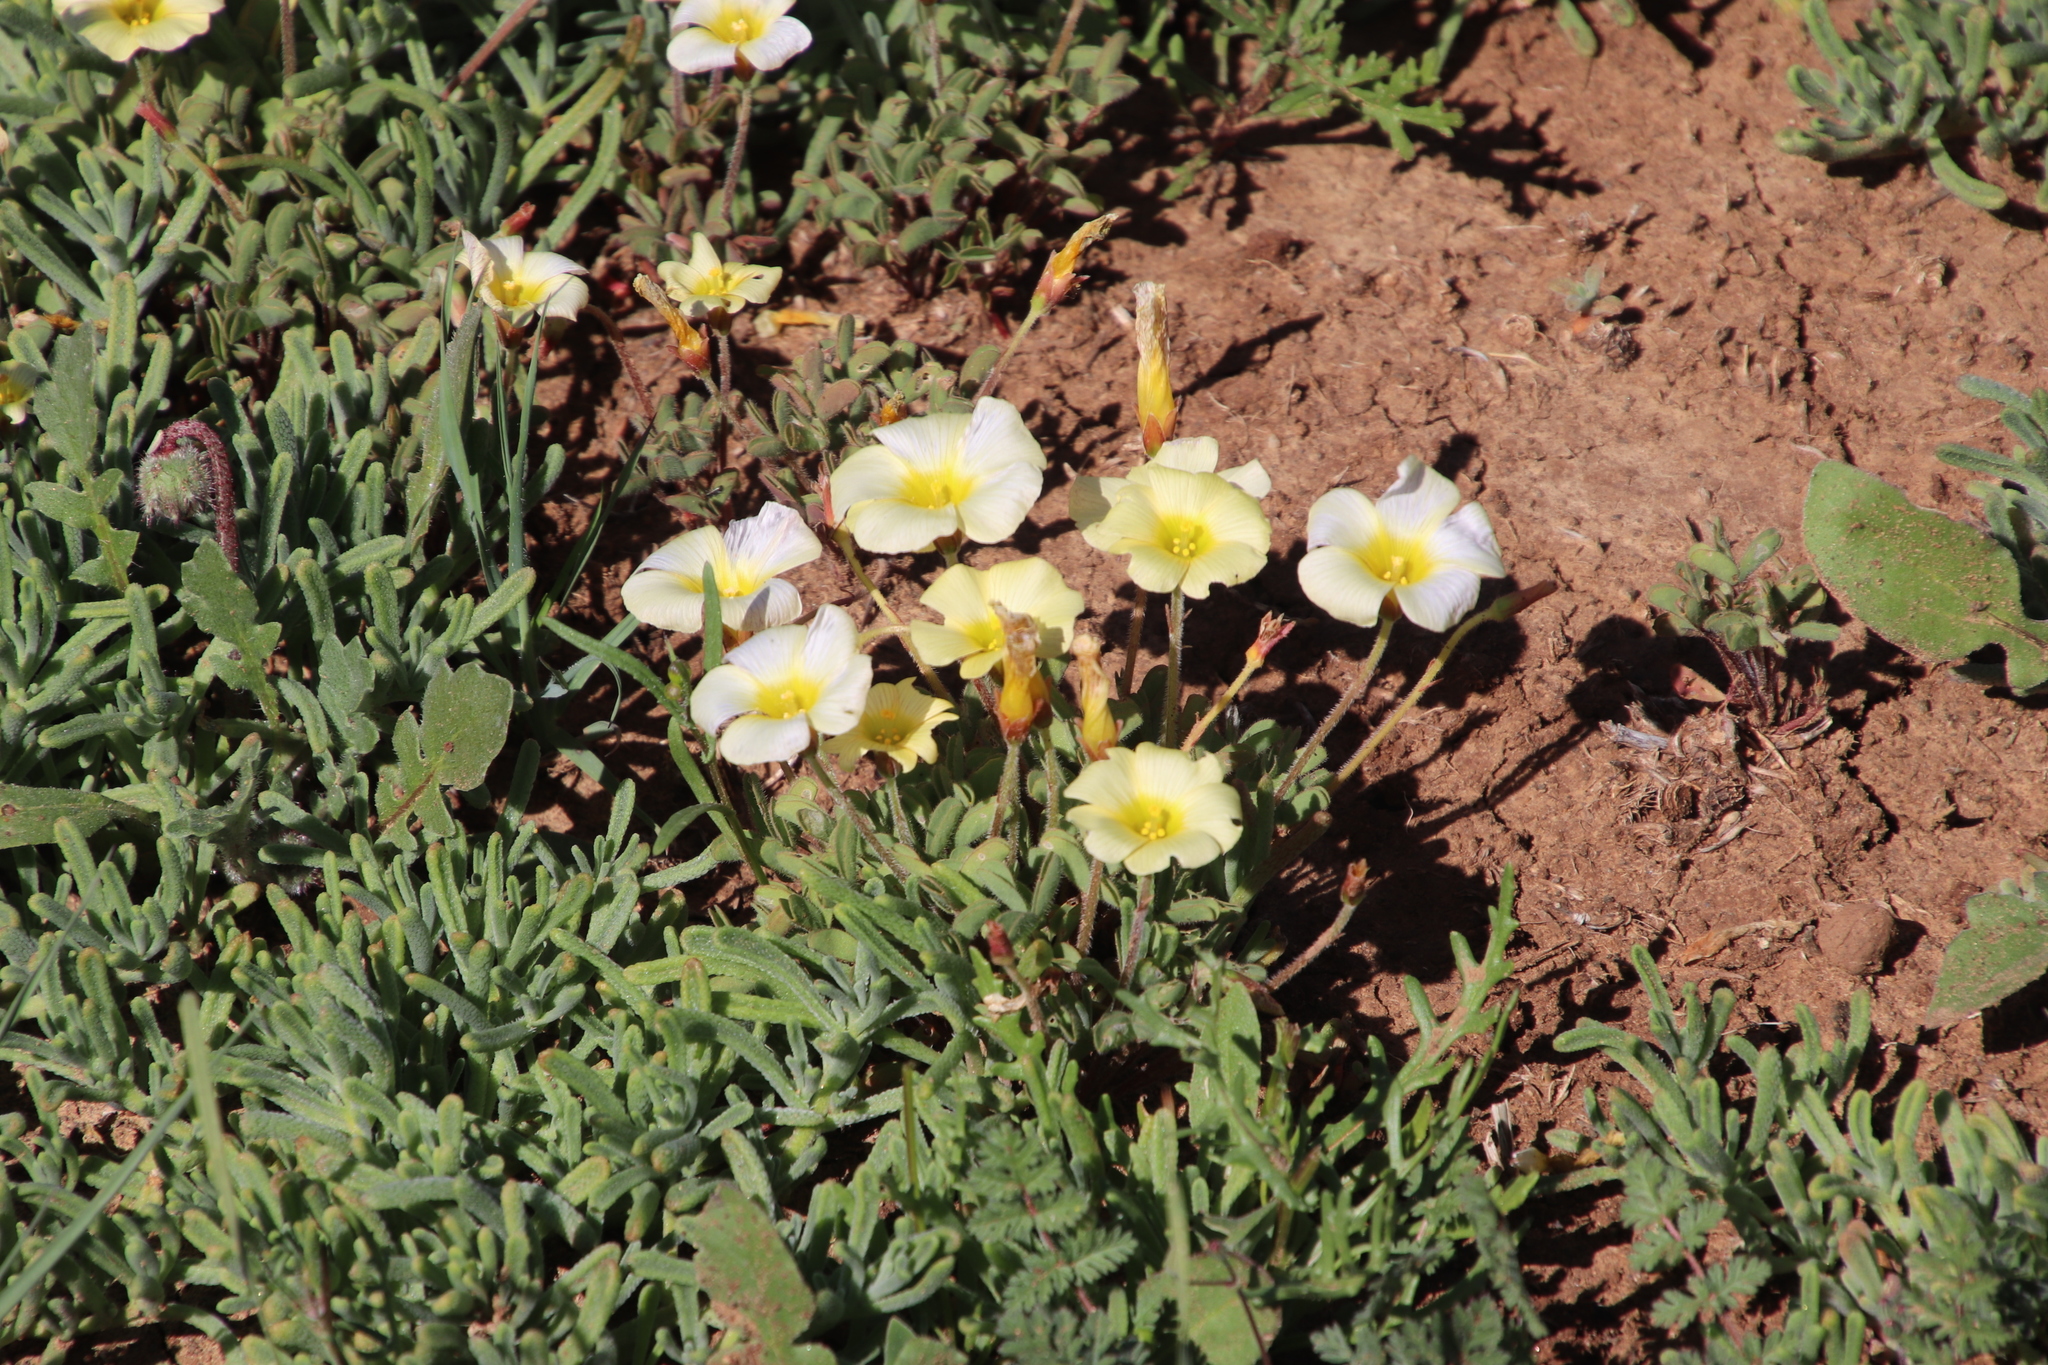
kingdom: Plantae
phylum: Tracheophyta
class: Magnoliopsida
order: Oxalidales
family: Oxalidaceae
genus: Oxalis
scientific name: Oxalis obtusa
